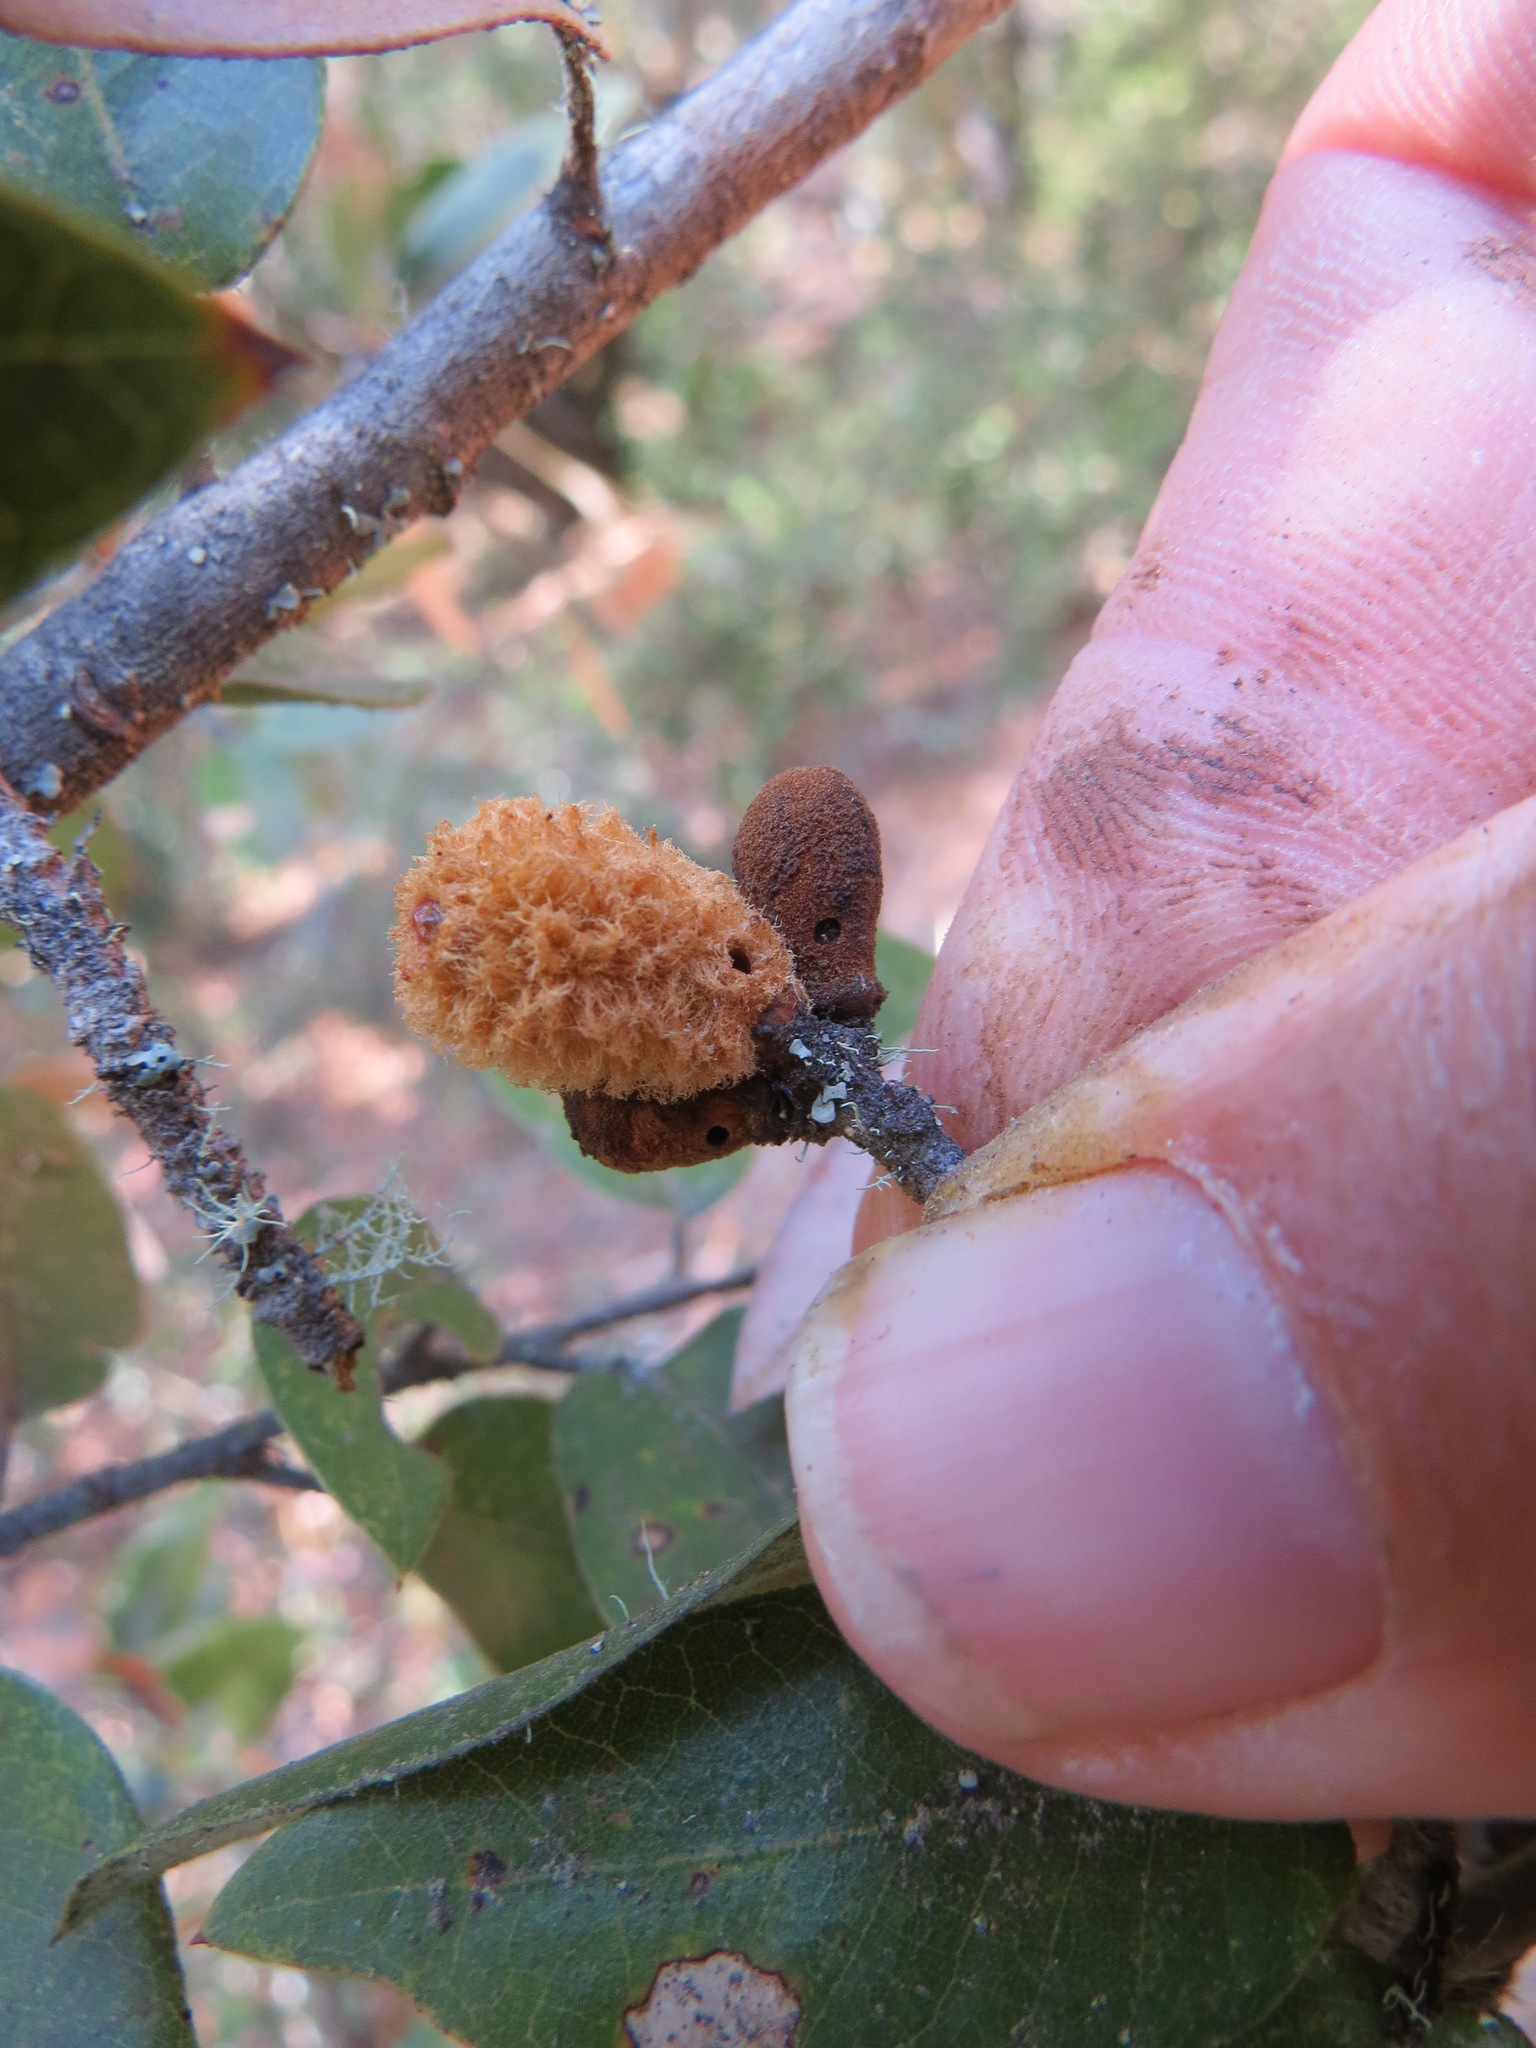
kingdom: Animalia
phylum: Arthropoda
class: Insecta
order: Hymenoptera
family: Cynipidae
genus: Heteroecus
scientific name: Heteroecus
